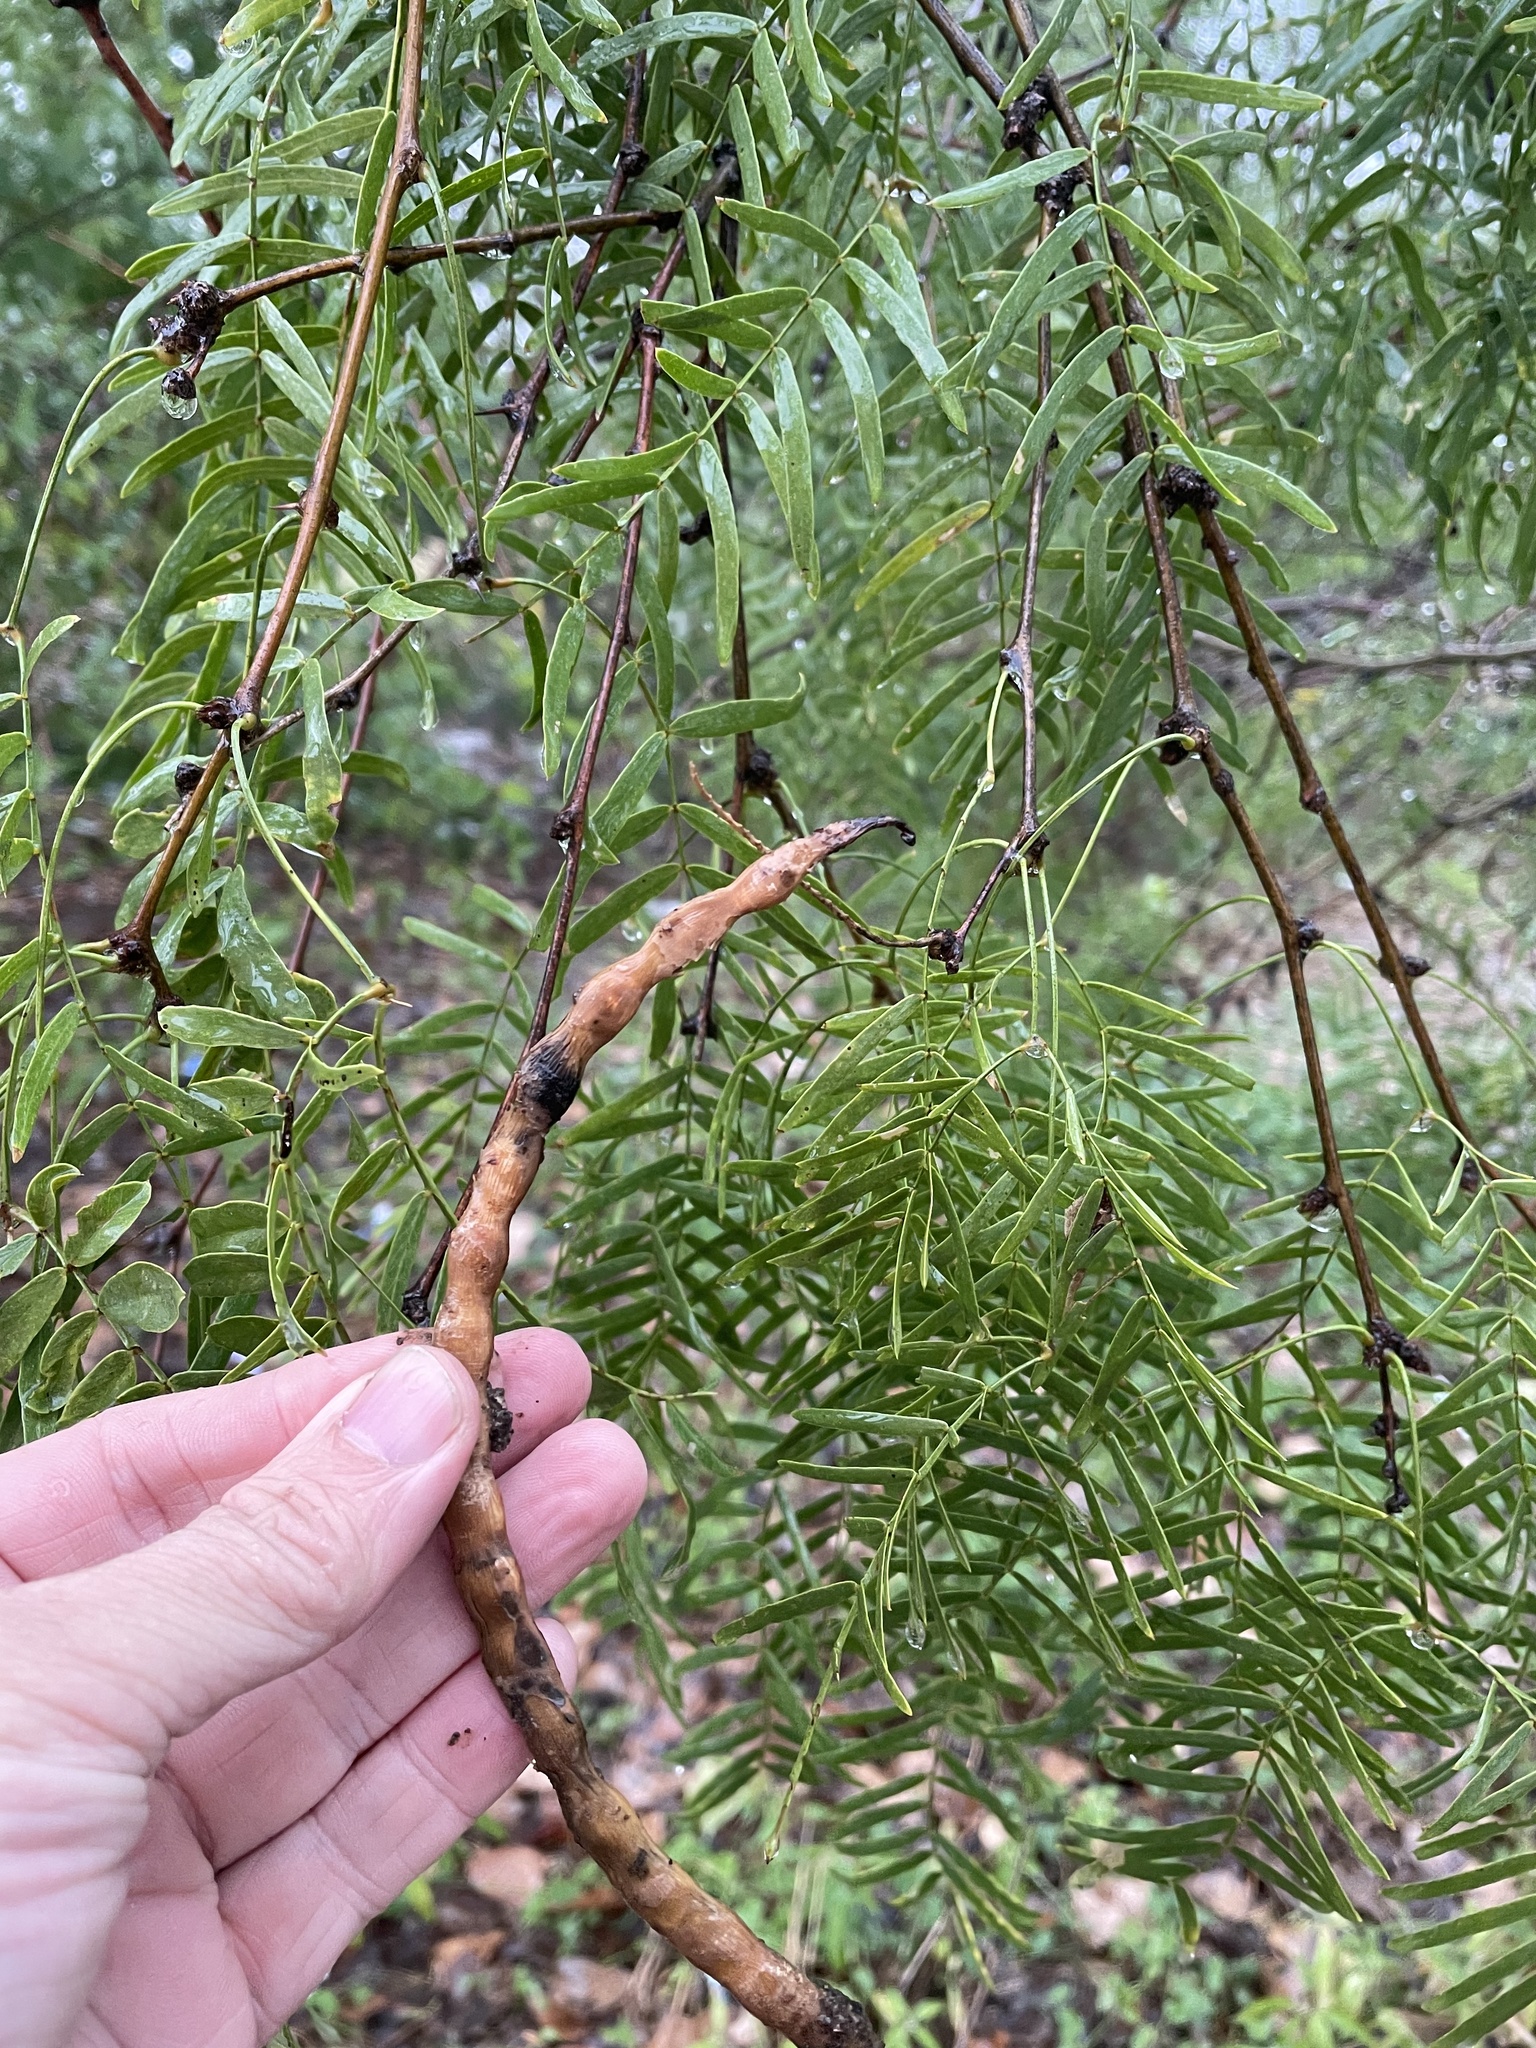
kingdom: Plantae
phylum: Tracheophyta
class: Magnoliopsida
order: Fabales
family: Fabaceae
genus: Prosopis
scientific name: Prosopis glandulosa
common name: Honey mesquite
